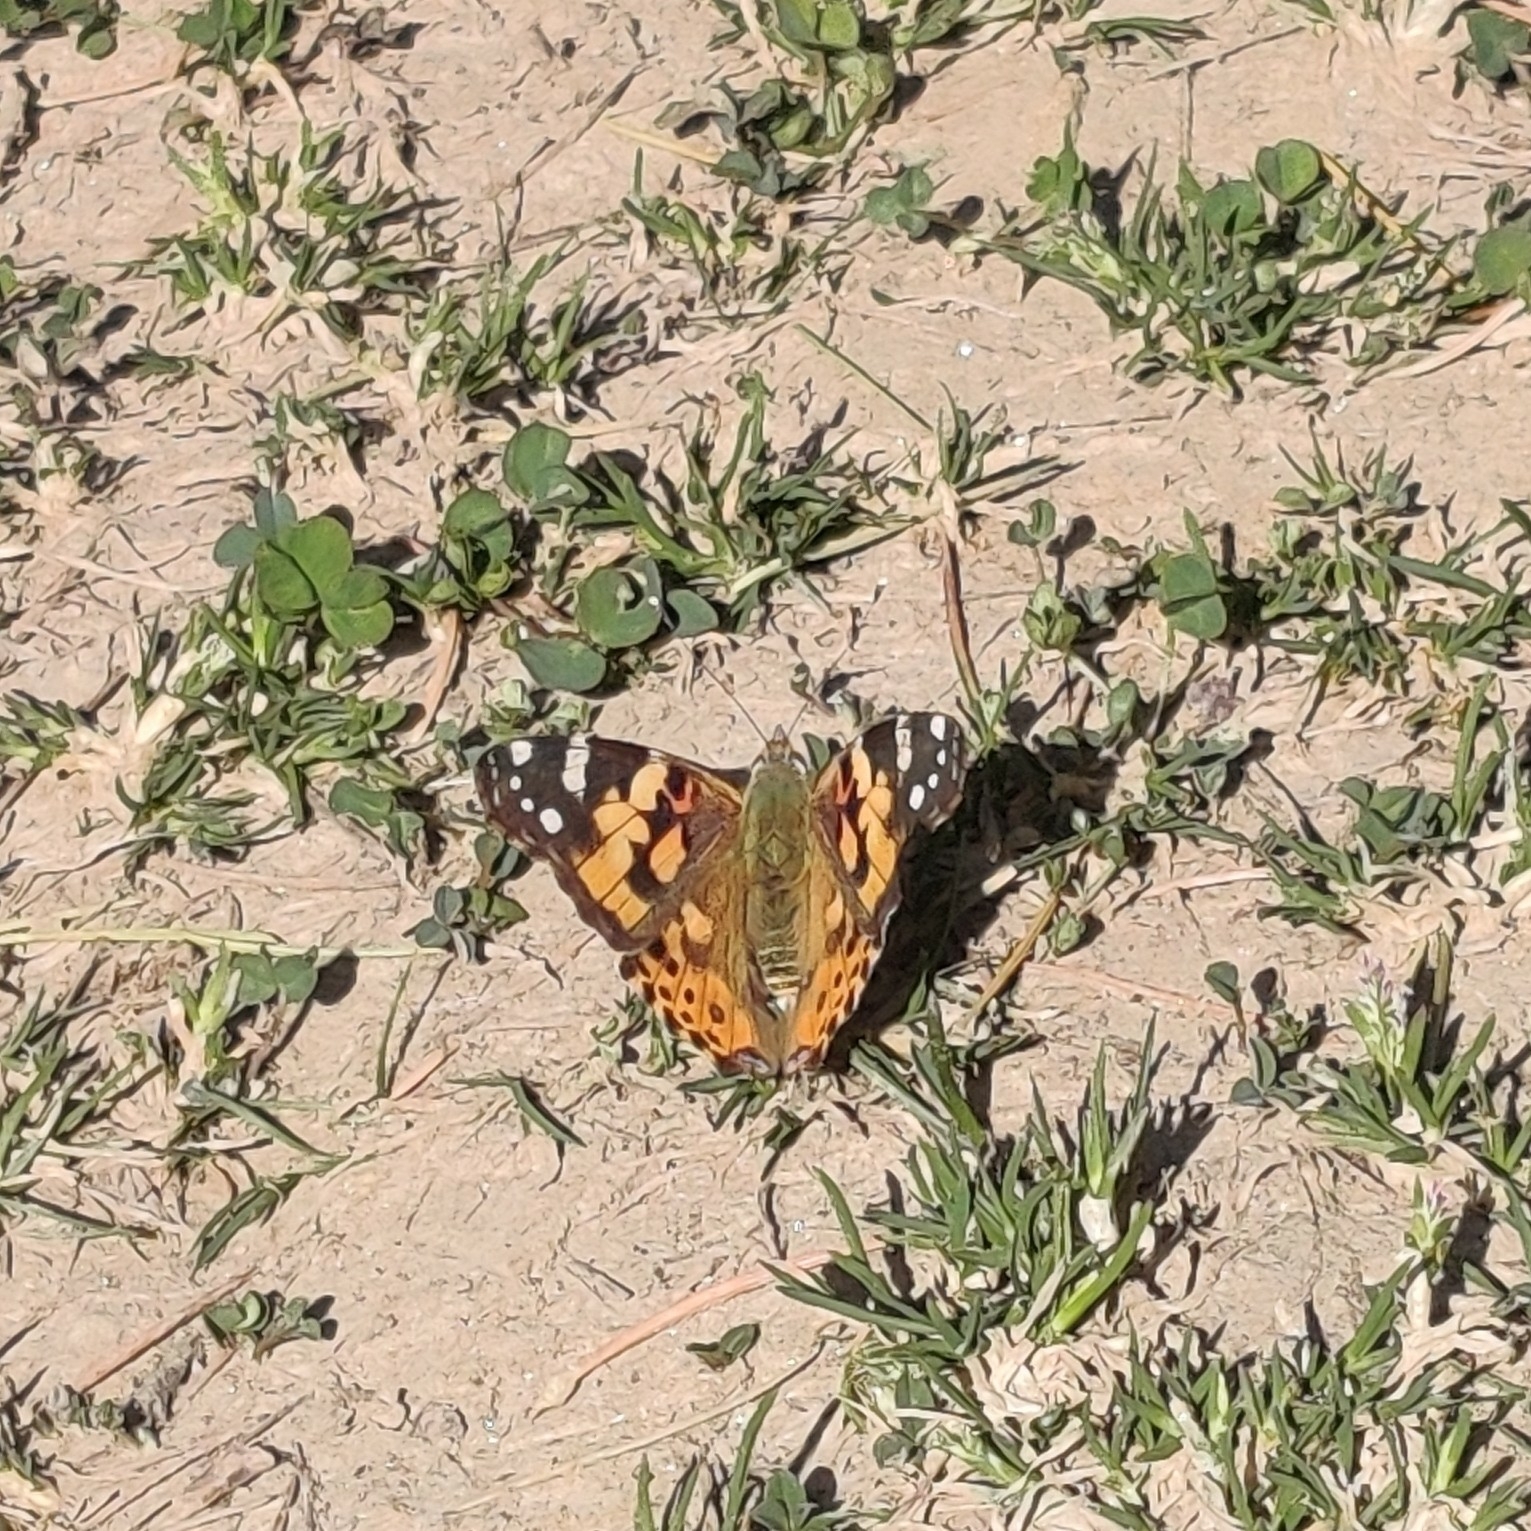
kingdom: Animalia
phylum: Arthropoda
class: Insecta
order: Lepidoptera
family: Nymphalidae
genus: Vanessa
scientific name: Vanessa cardui
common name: Painted lady
